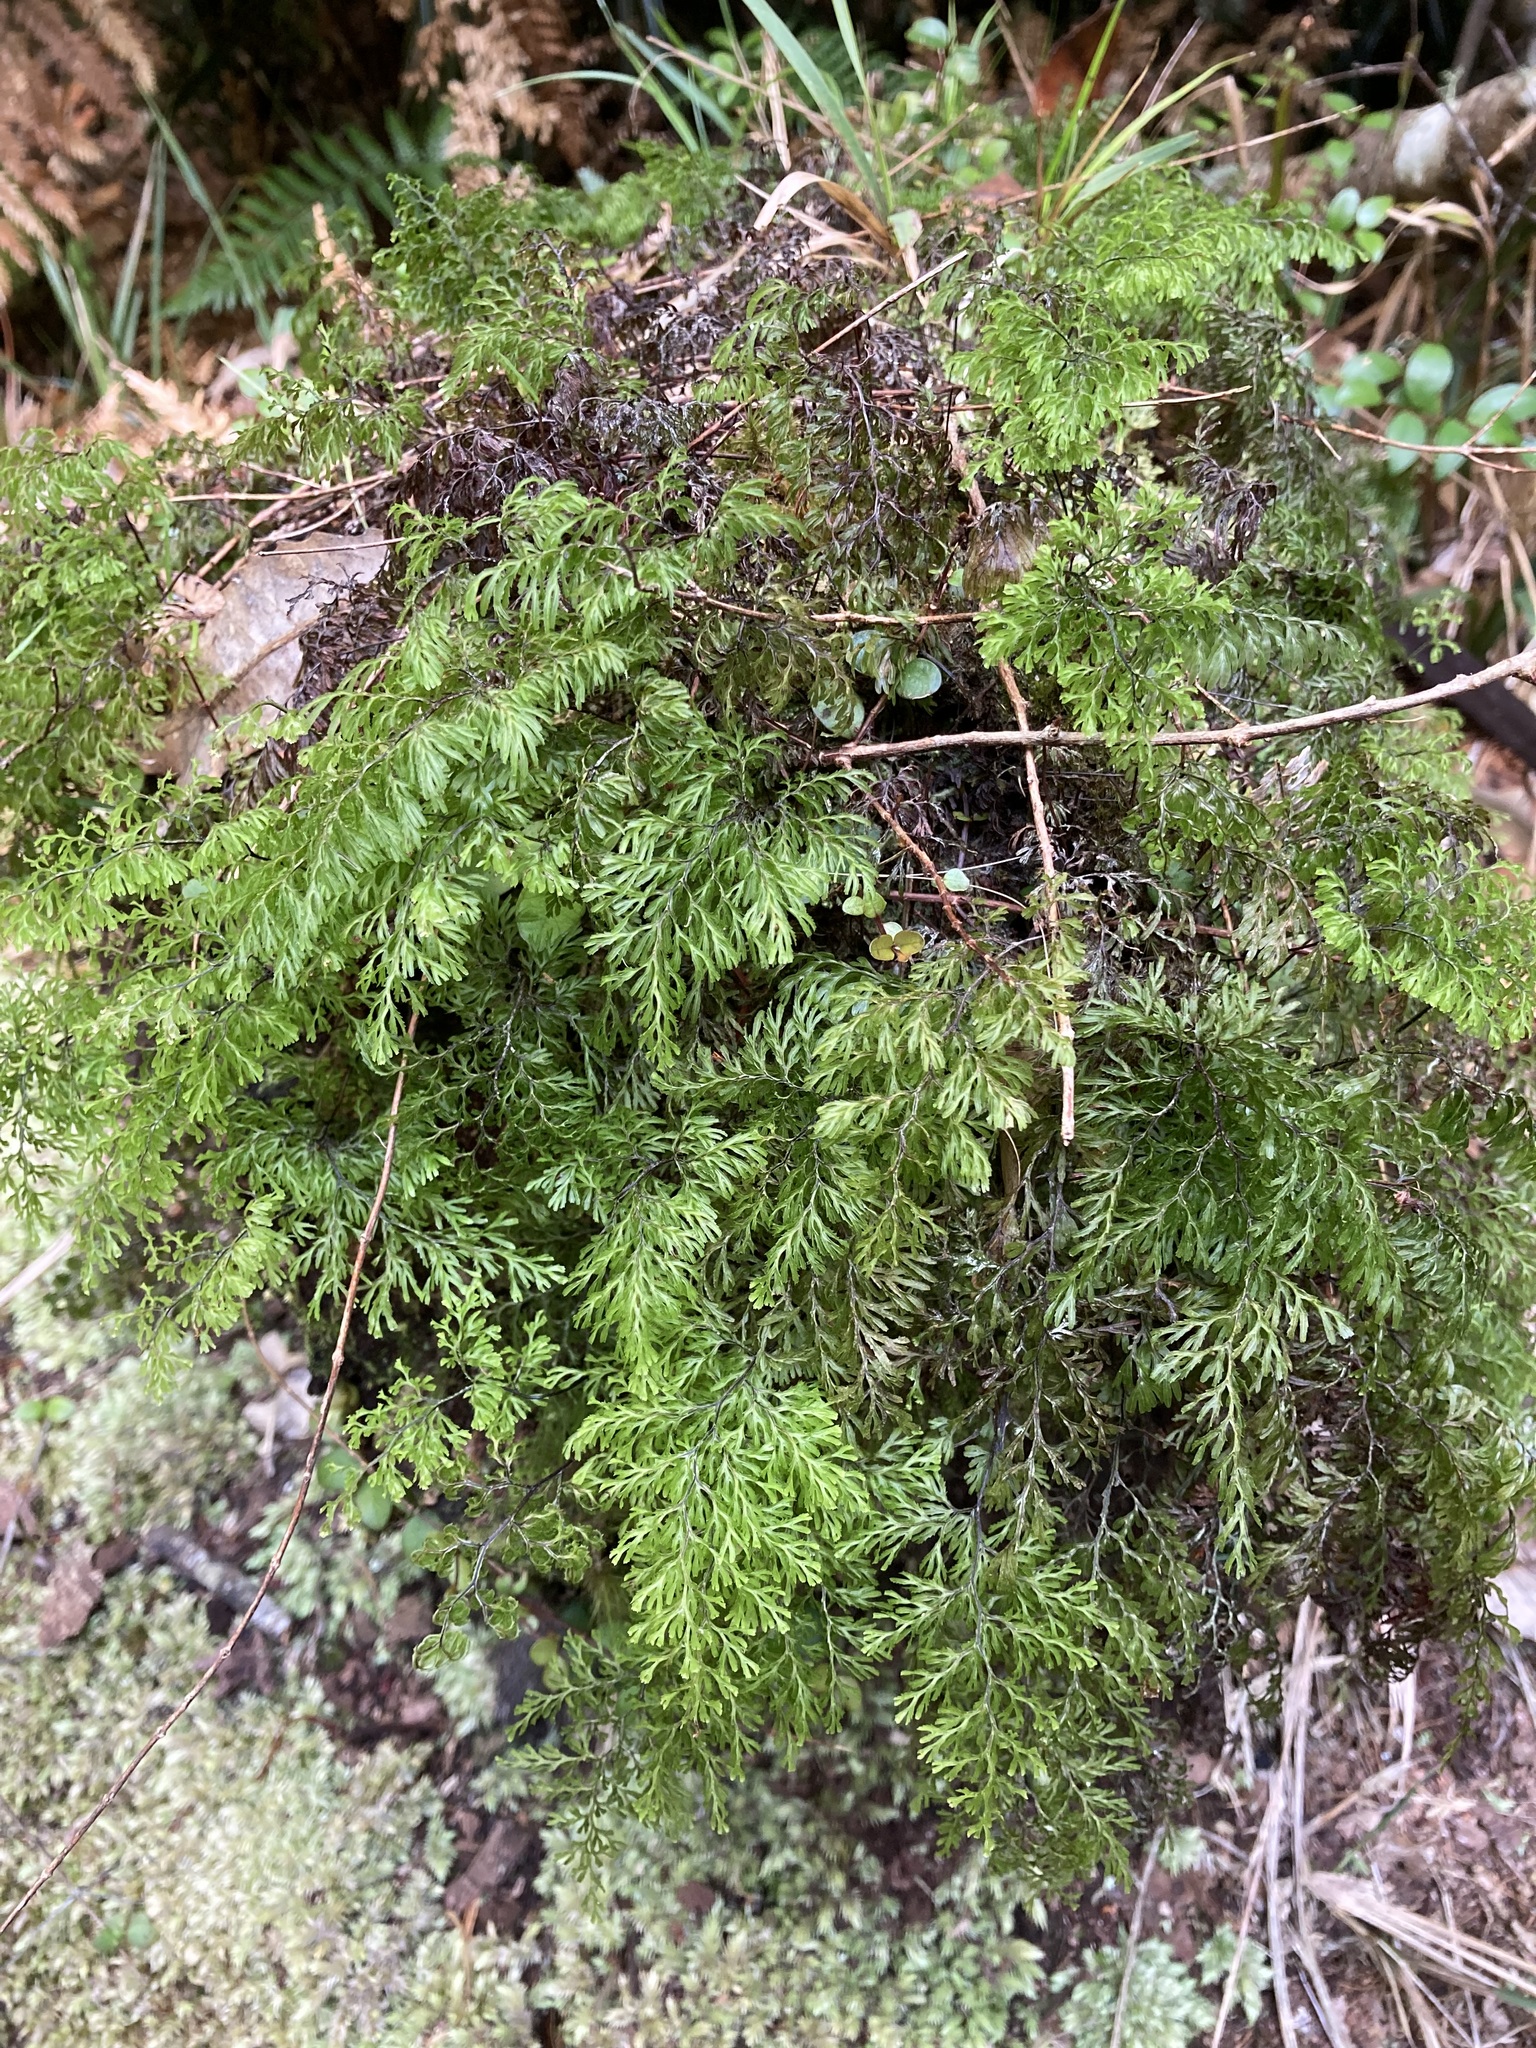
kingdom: Plantae
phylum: Tracheophyta
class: Polypodiopsida
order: Hymenophyllales
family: Hymenophyllaceae
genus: Hymenophyllum
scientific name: Hymenophyllum multifidum
